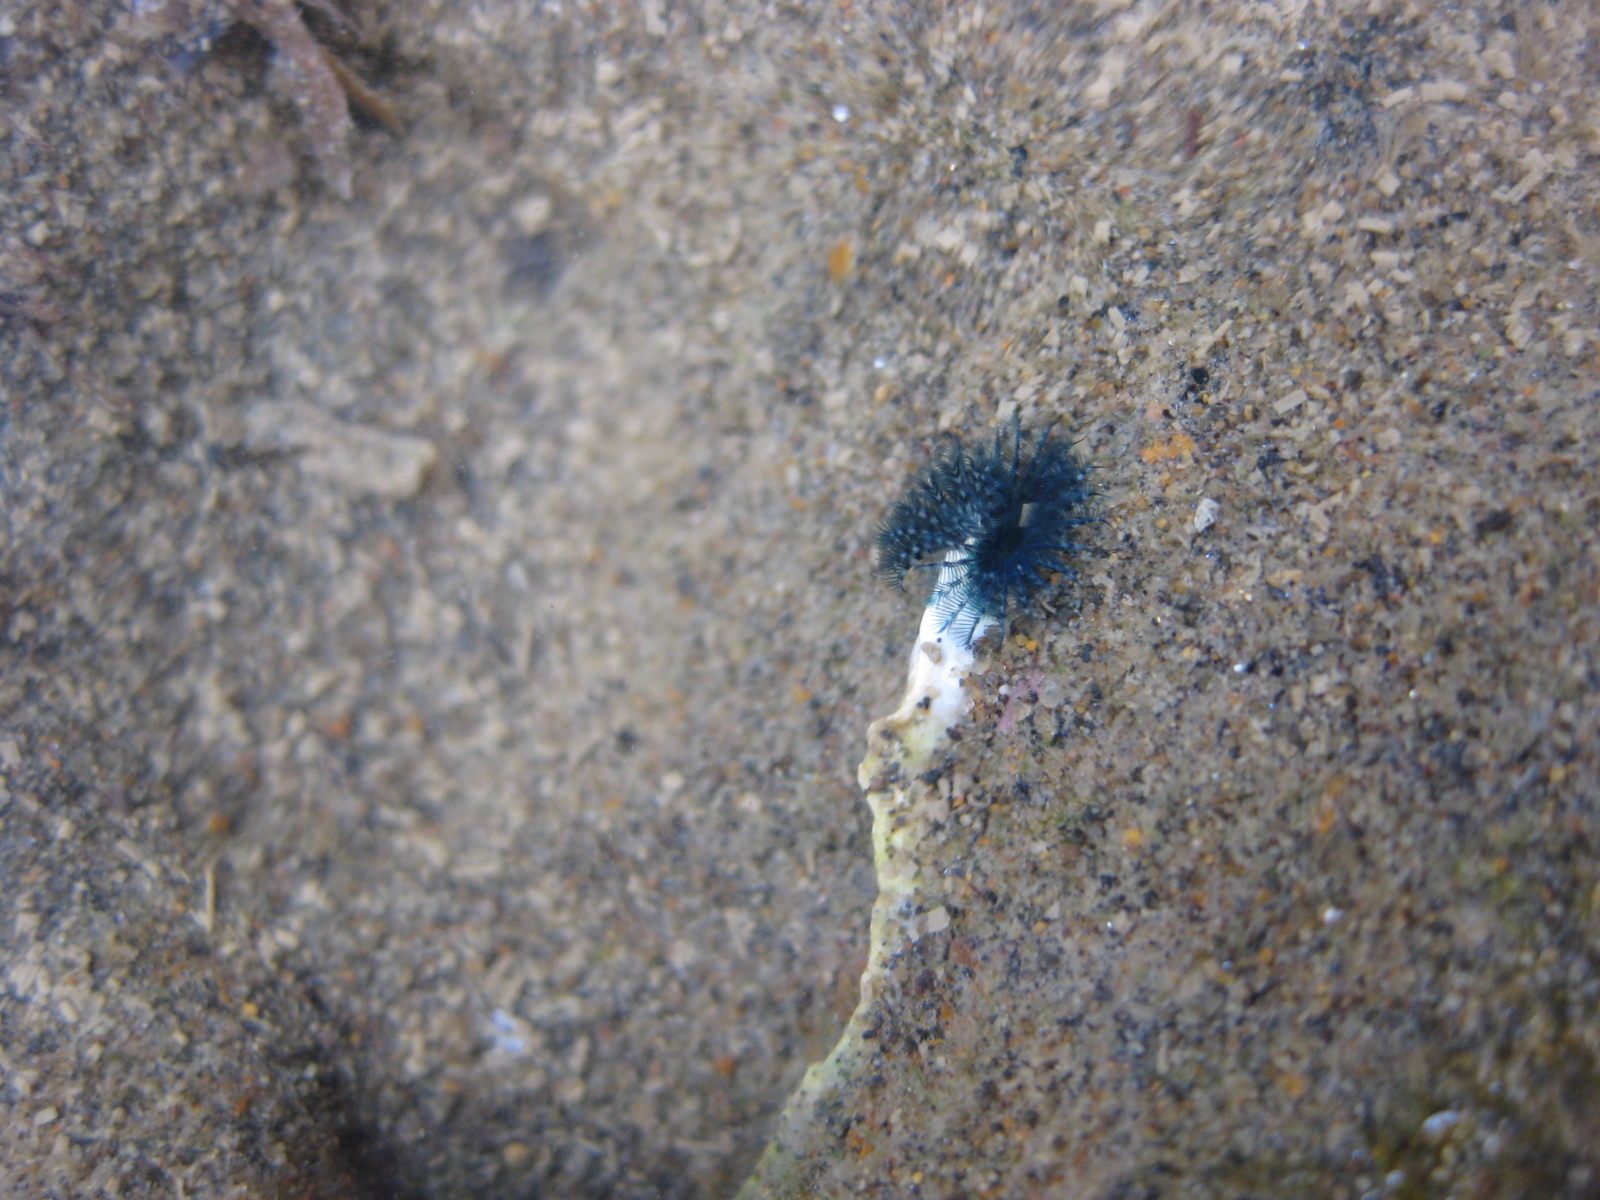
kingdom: Animalia
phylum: Annelida
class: Polychaeta
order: Sabellida
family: Serpulidae
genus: Spirobranchus
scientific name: Spirobranchus cariniferus
